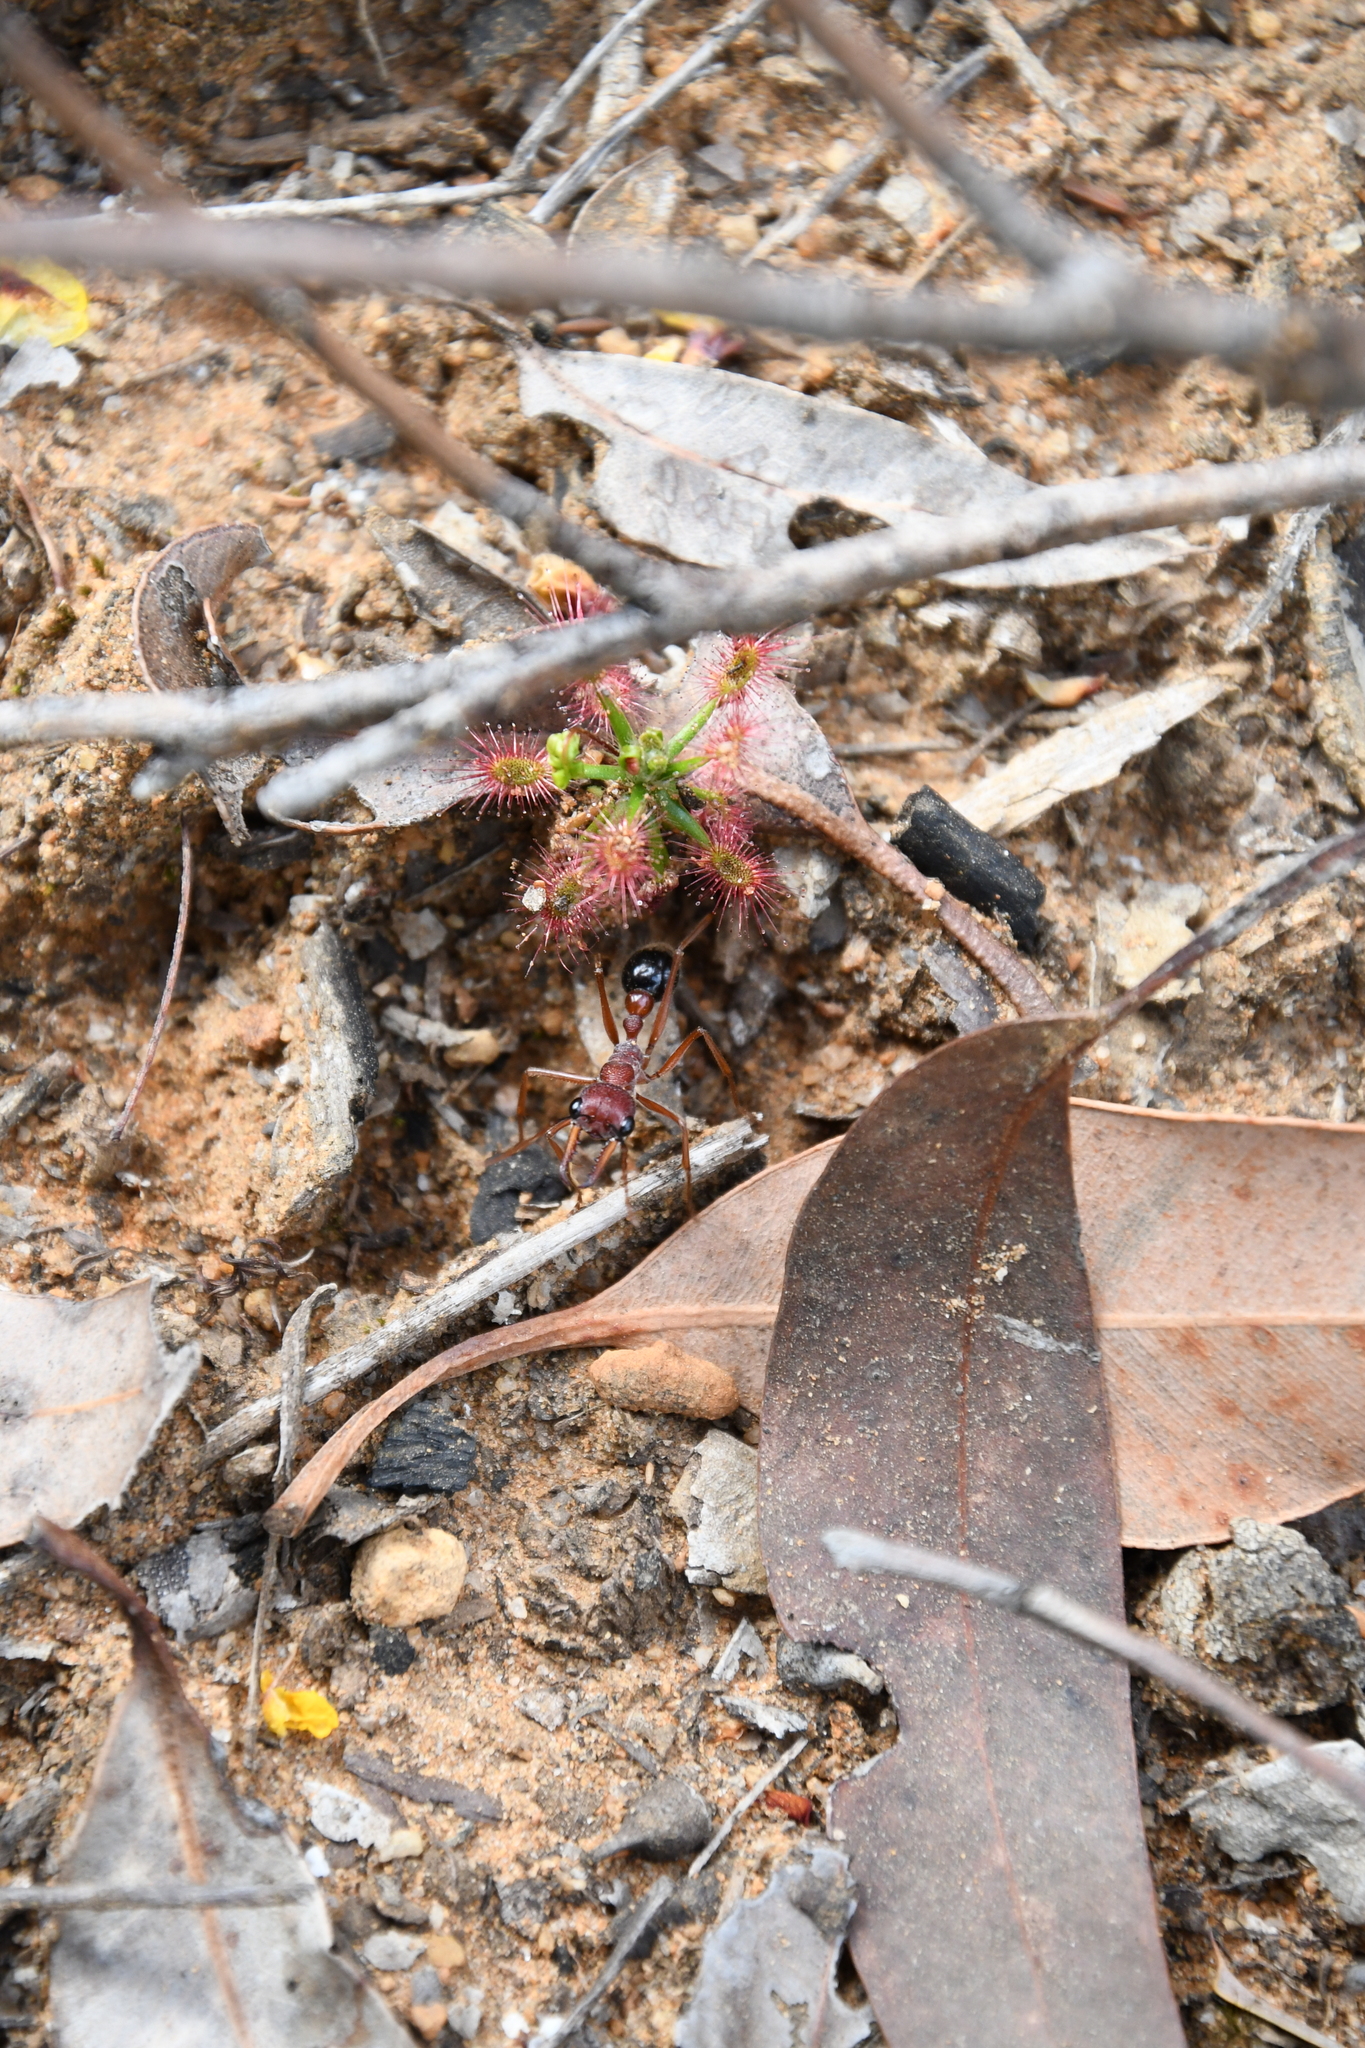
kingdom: Animalia
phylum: Arthropoda
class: Insecta
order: Hymenoptera
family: Formicidae
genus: Myrmecia
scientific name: Myrmecia analis
